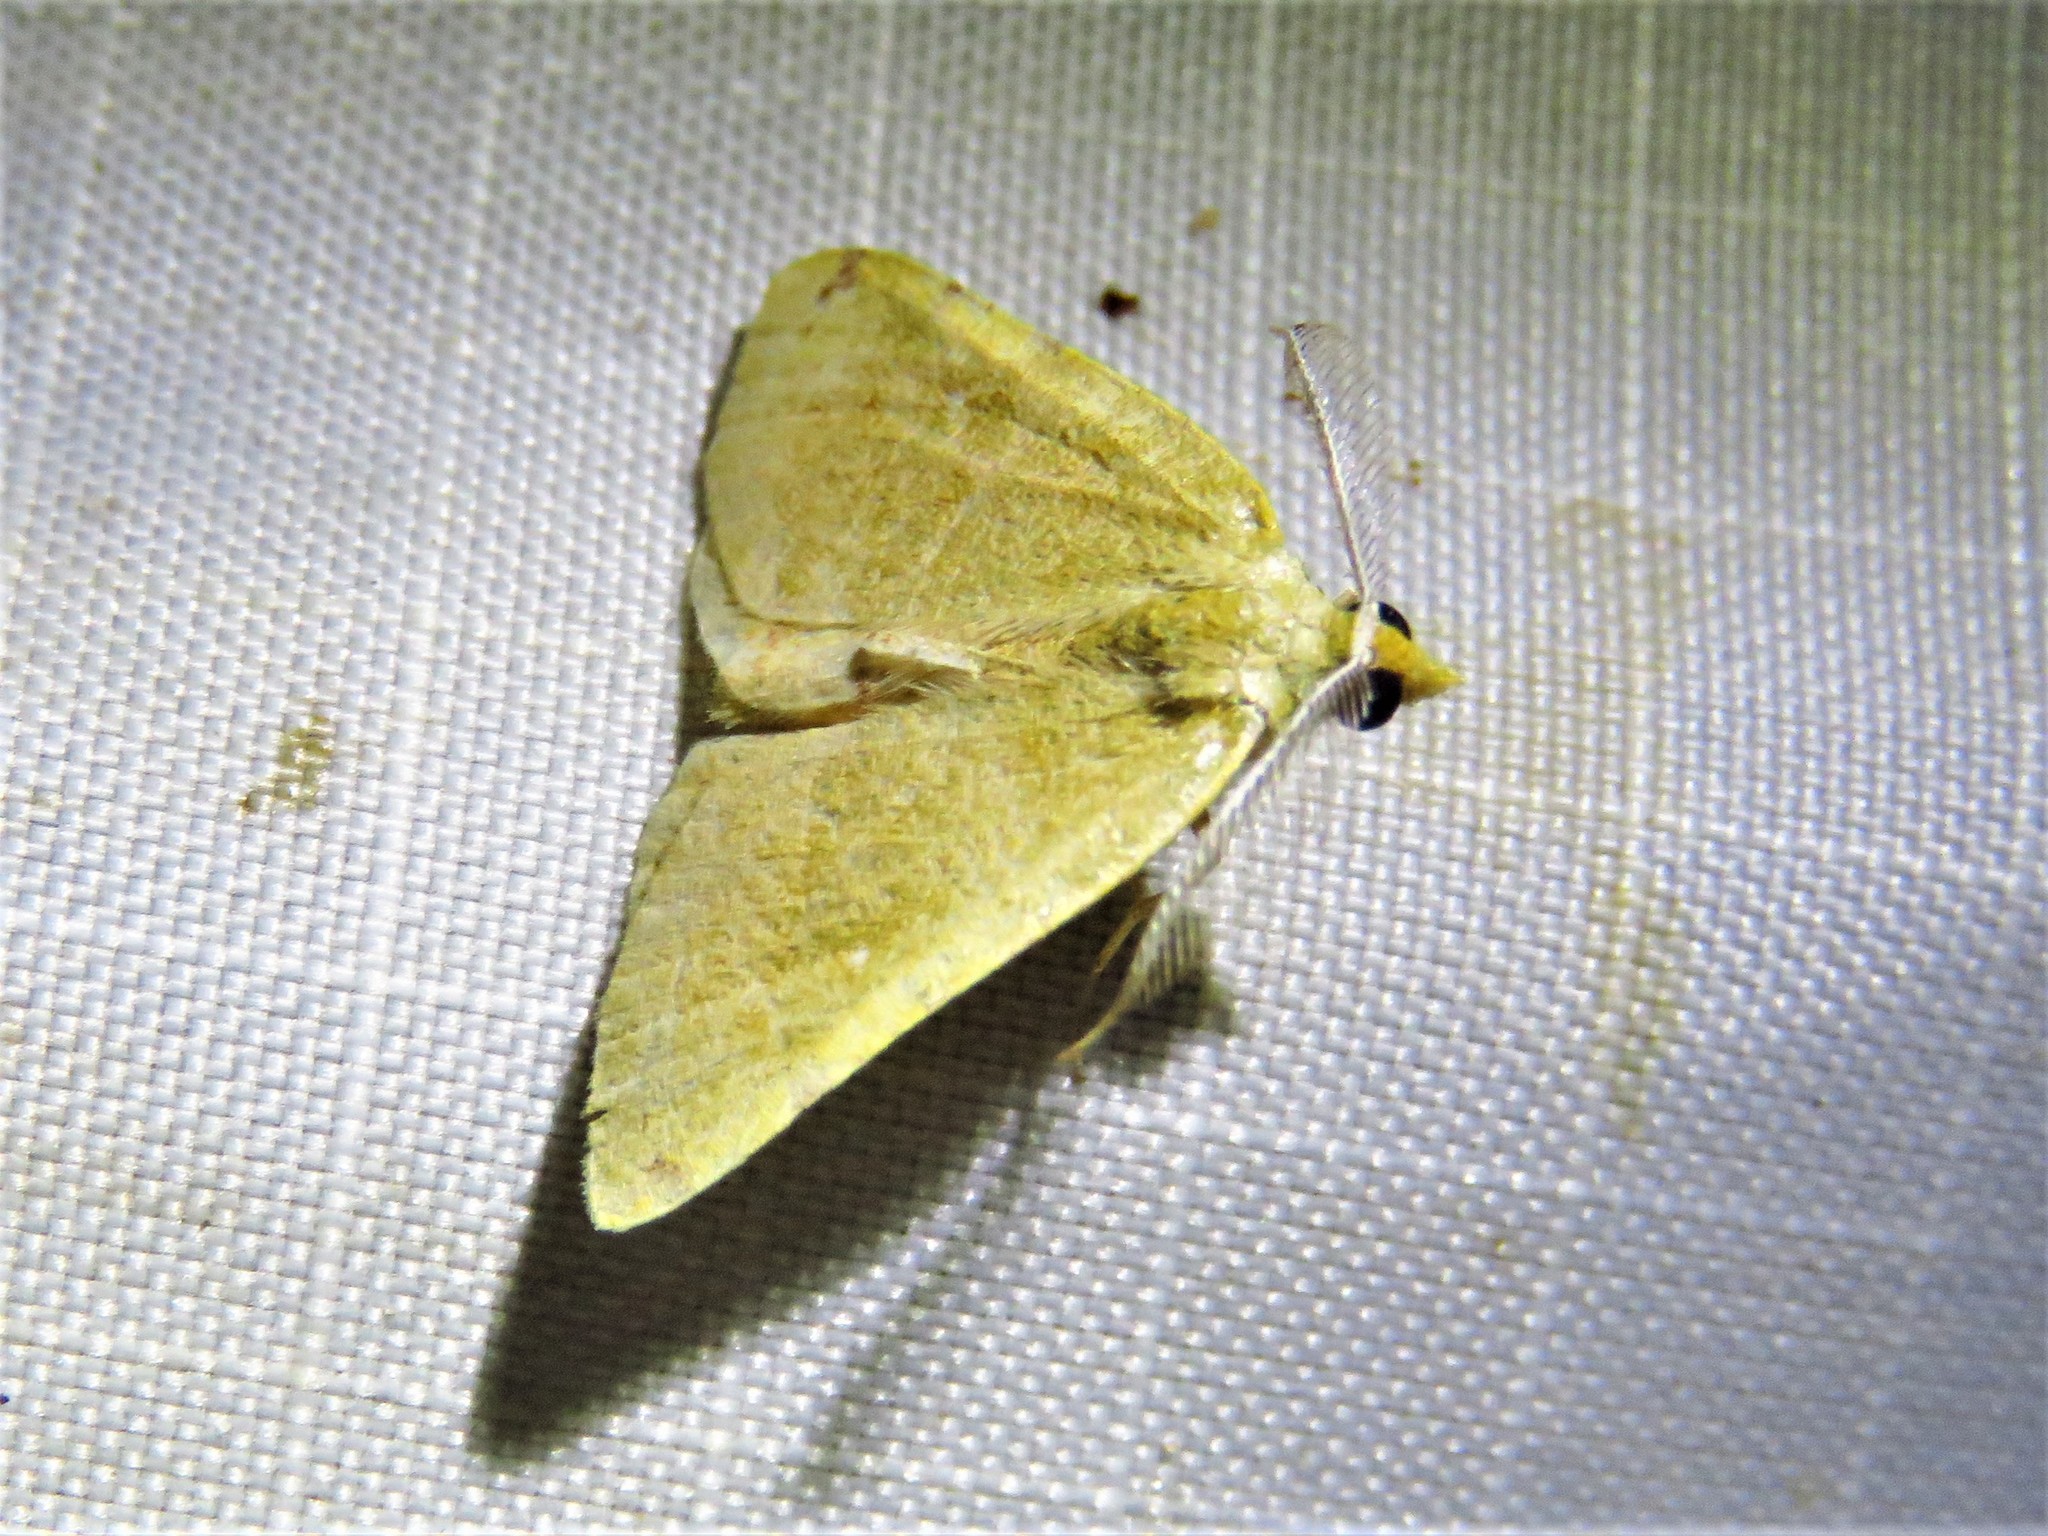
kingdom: Animalia
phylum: Arthropoda
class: Insecta
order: Lepidoptera
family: Geometridae
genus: Chloraspilates
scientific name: Chloraspilates bicoloraria
